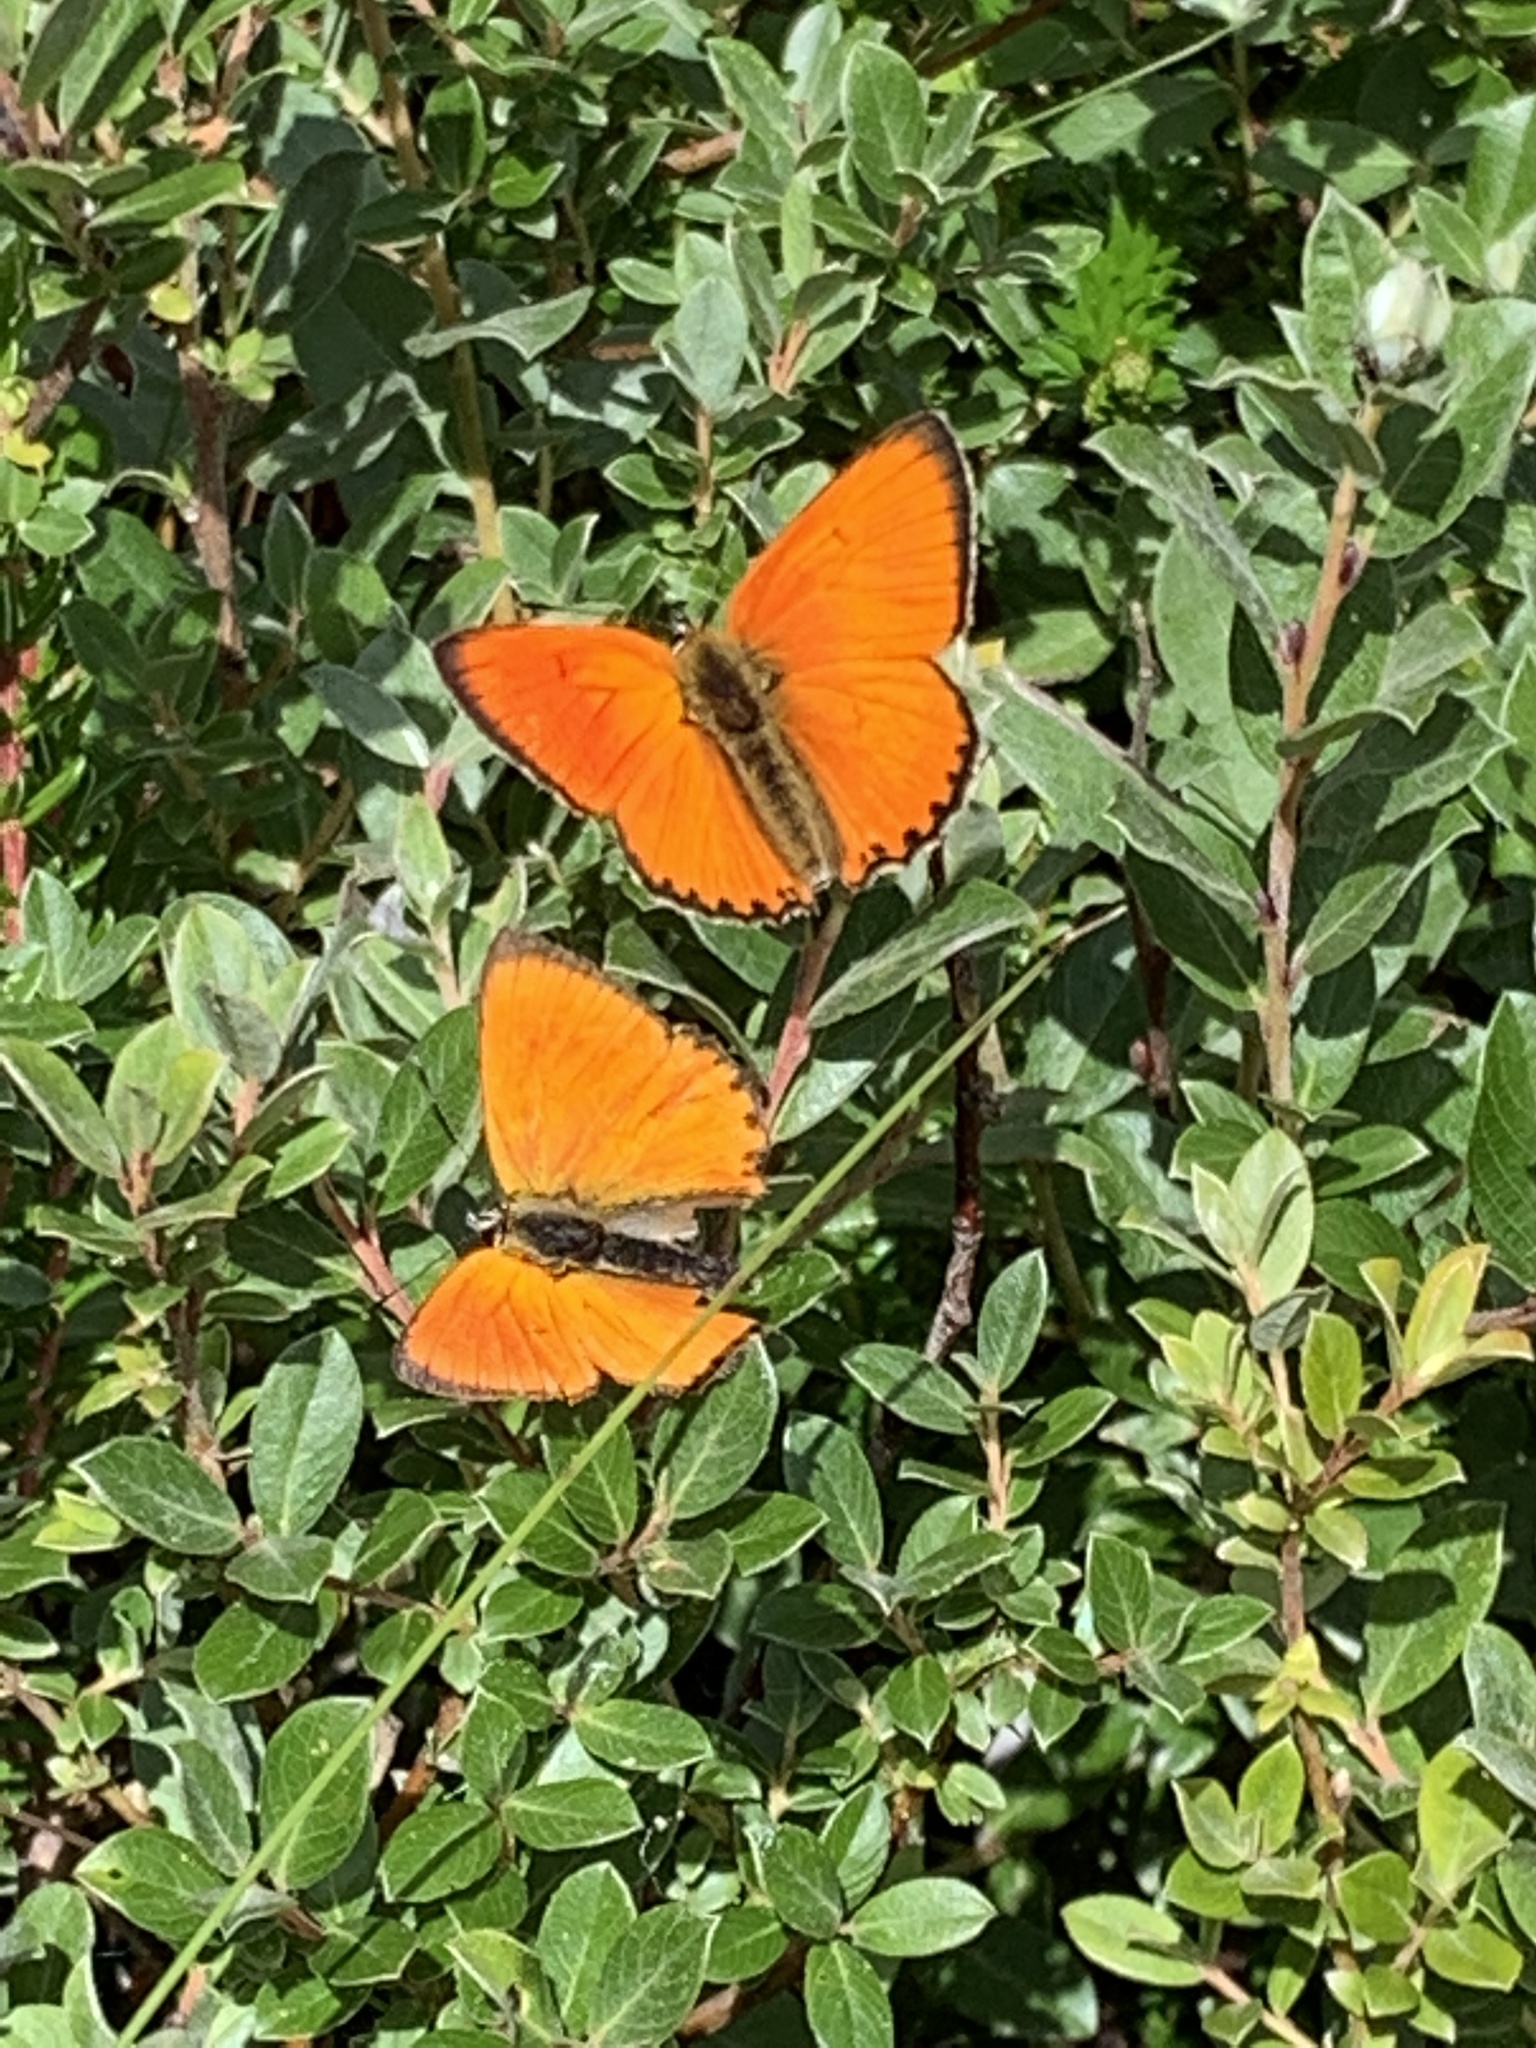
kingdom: Animalia
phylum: Arthropoda
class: Insecta
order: Lepidoptera
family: Lycaenidae
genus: Lycaena
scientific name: Lycaena virgaureae
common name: Scarce copper
